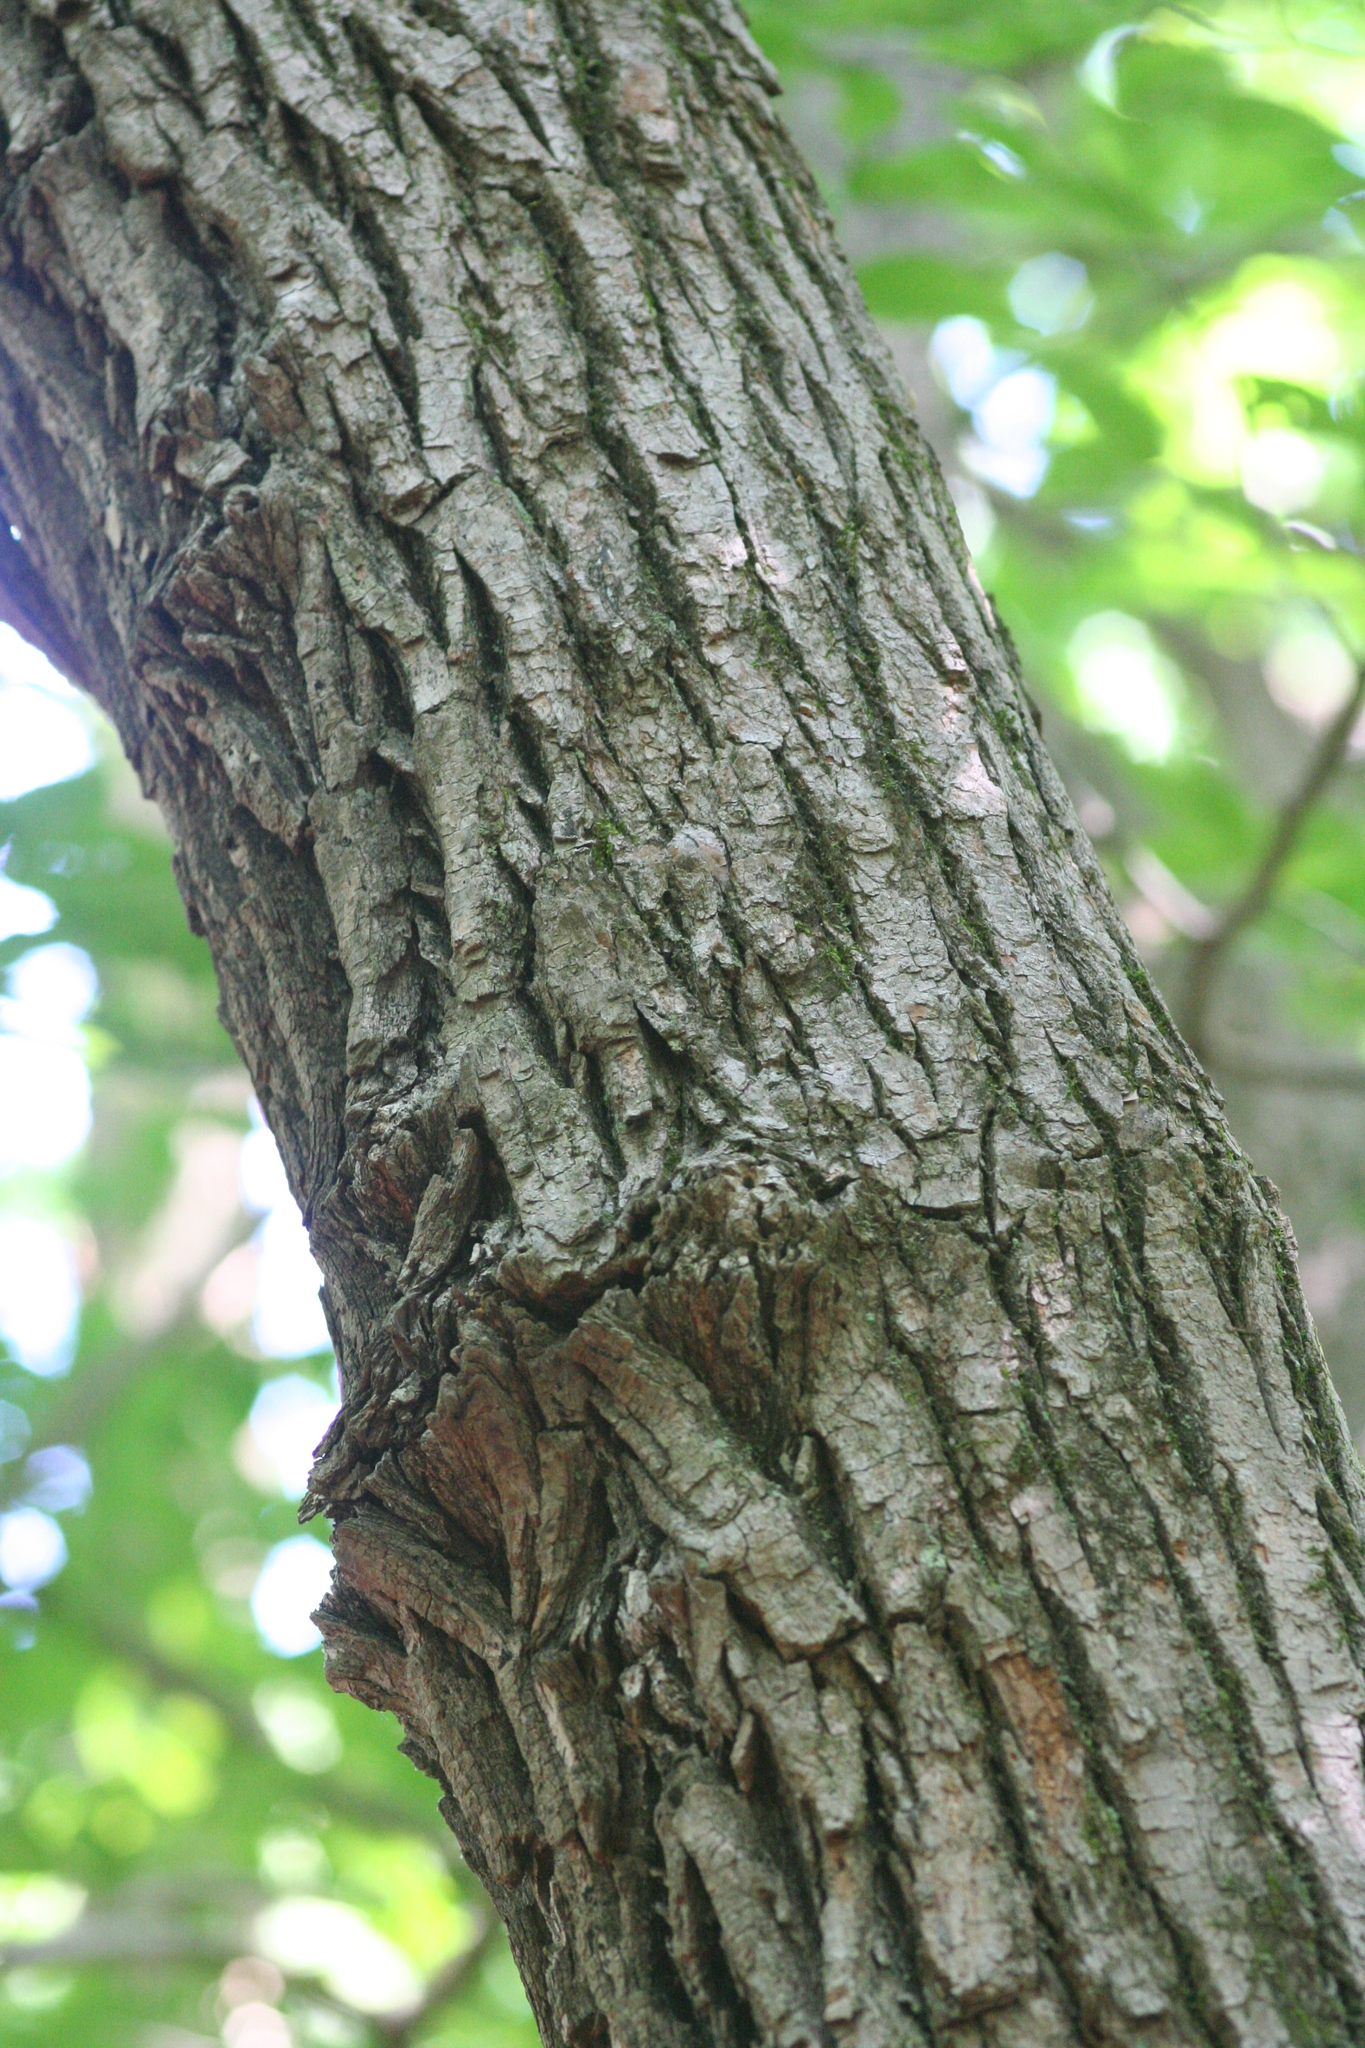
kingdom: Plantae
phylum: Tracheophyta
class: Magnoliopsida
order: Laurales
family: Lauraceae
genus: Sassafras
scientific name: Sassafras albidum
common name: Sassafras
